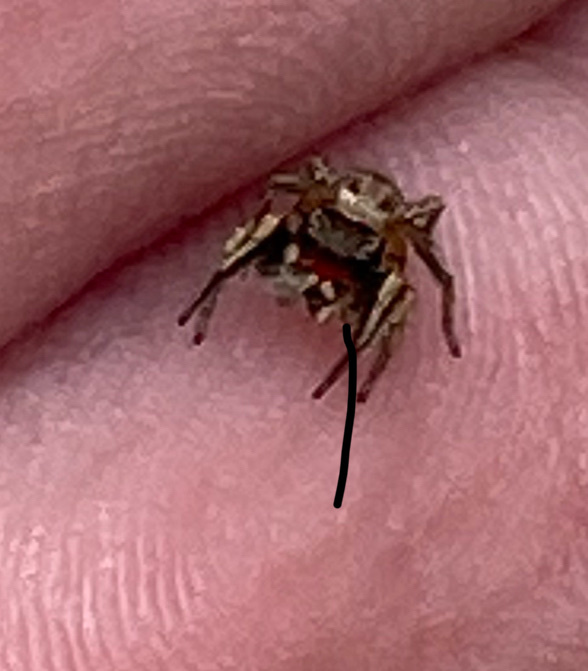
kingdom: Animalia
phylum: Arthropoda
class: Arachnida
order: Araneae
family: Salticidae
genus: Habronattus
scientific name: Habronattus coecatus
